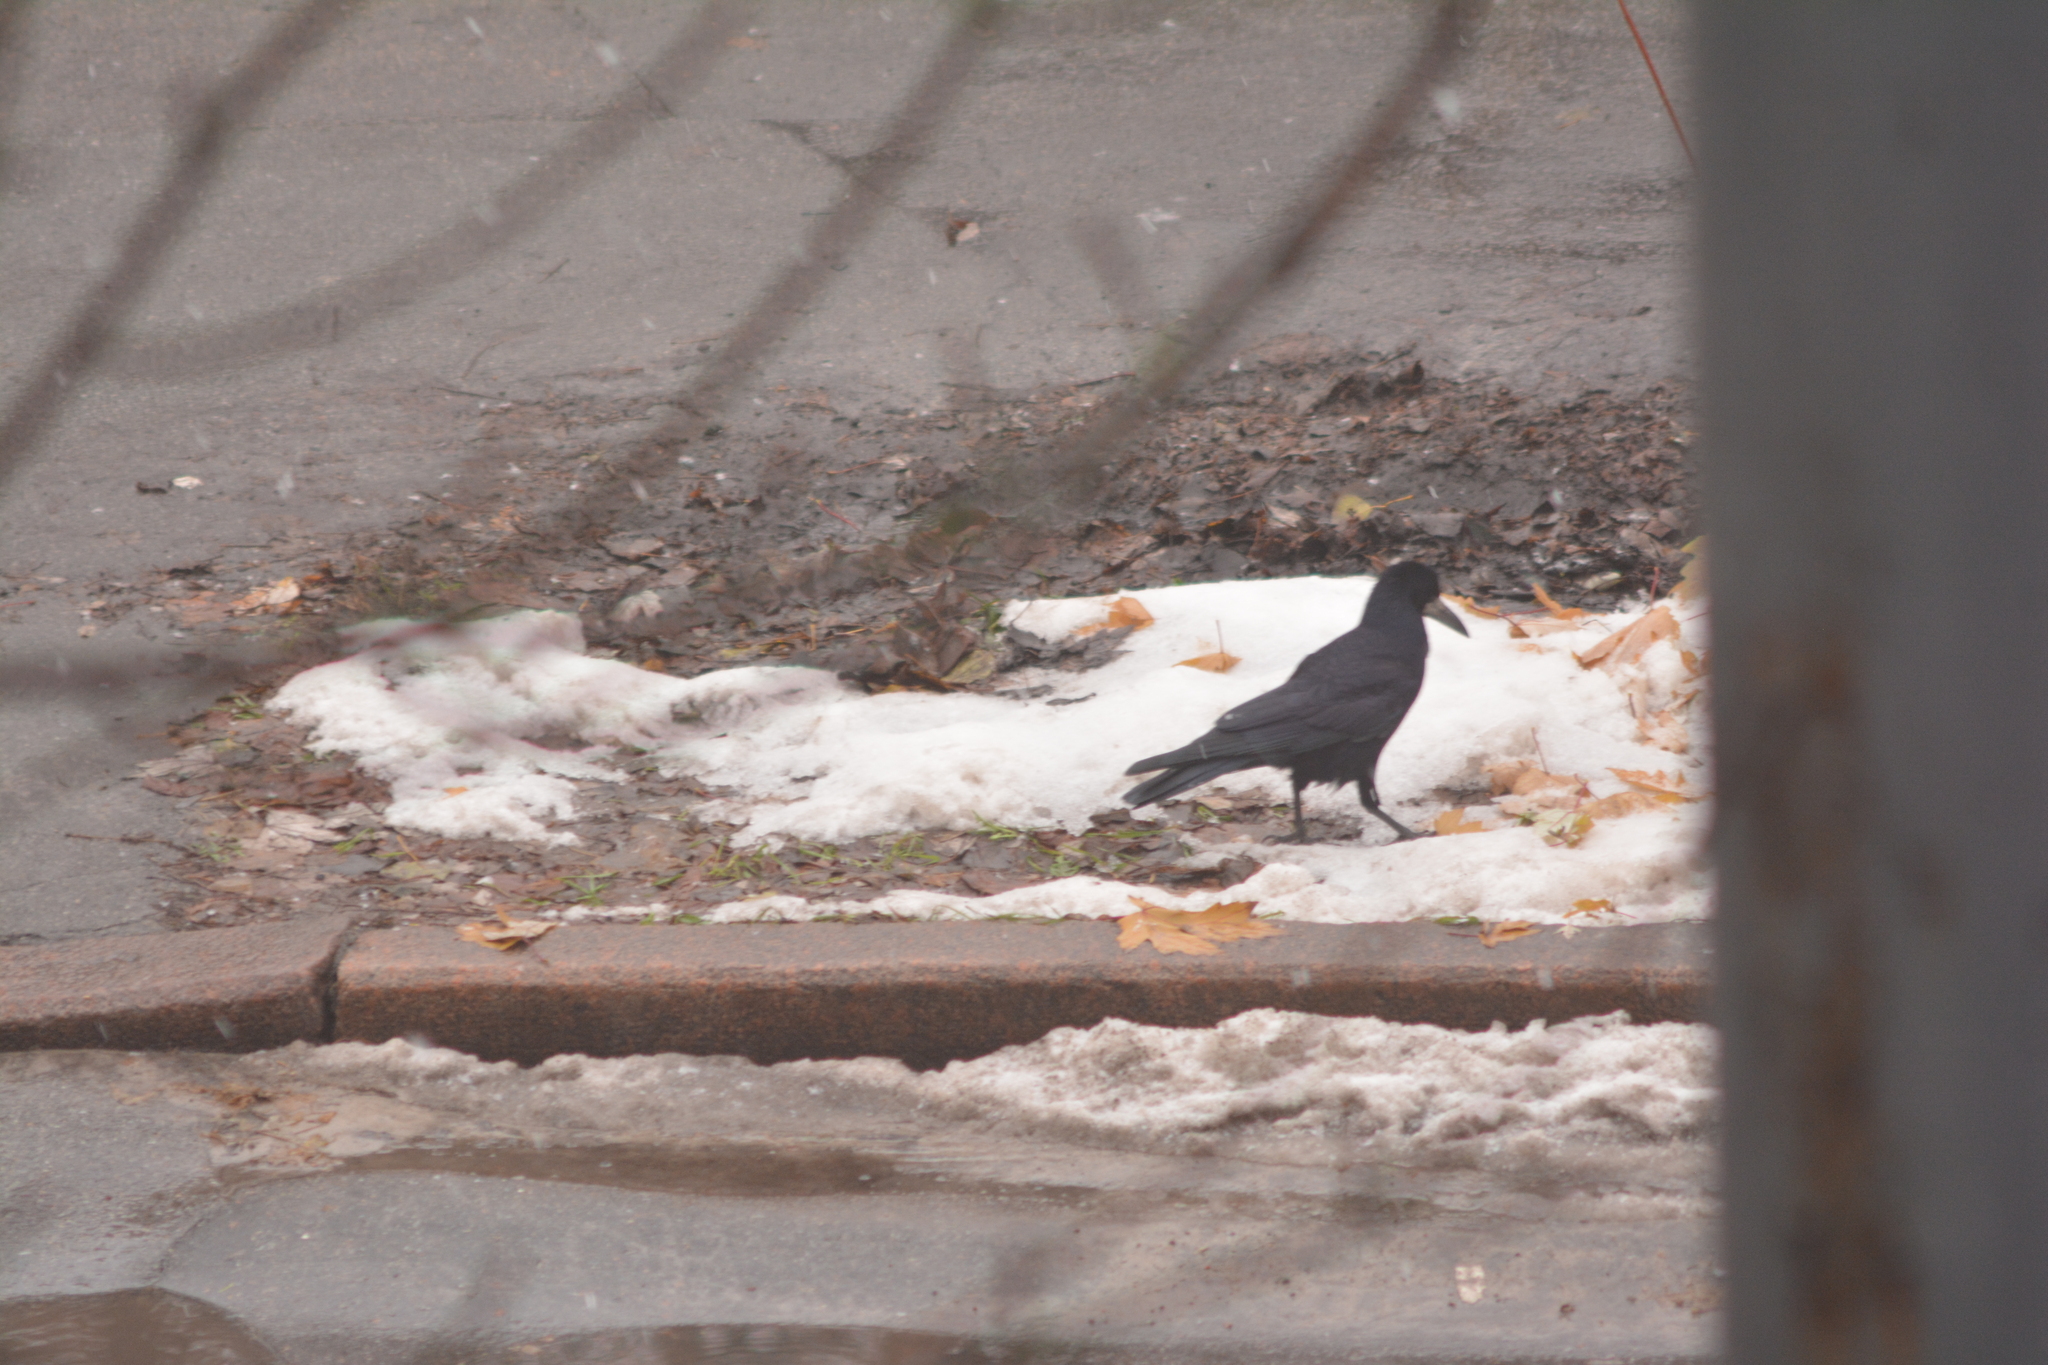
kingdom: Animalia
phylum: Chordata
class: Aves
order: Passeriformes
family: Corvidae
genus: Corvus
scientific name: Corvus frugilegus
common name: Rook
